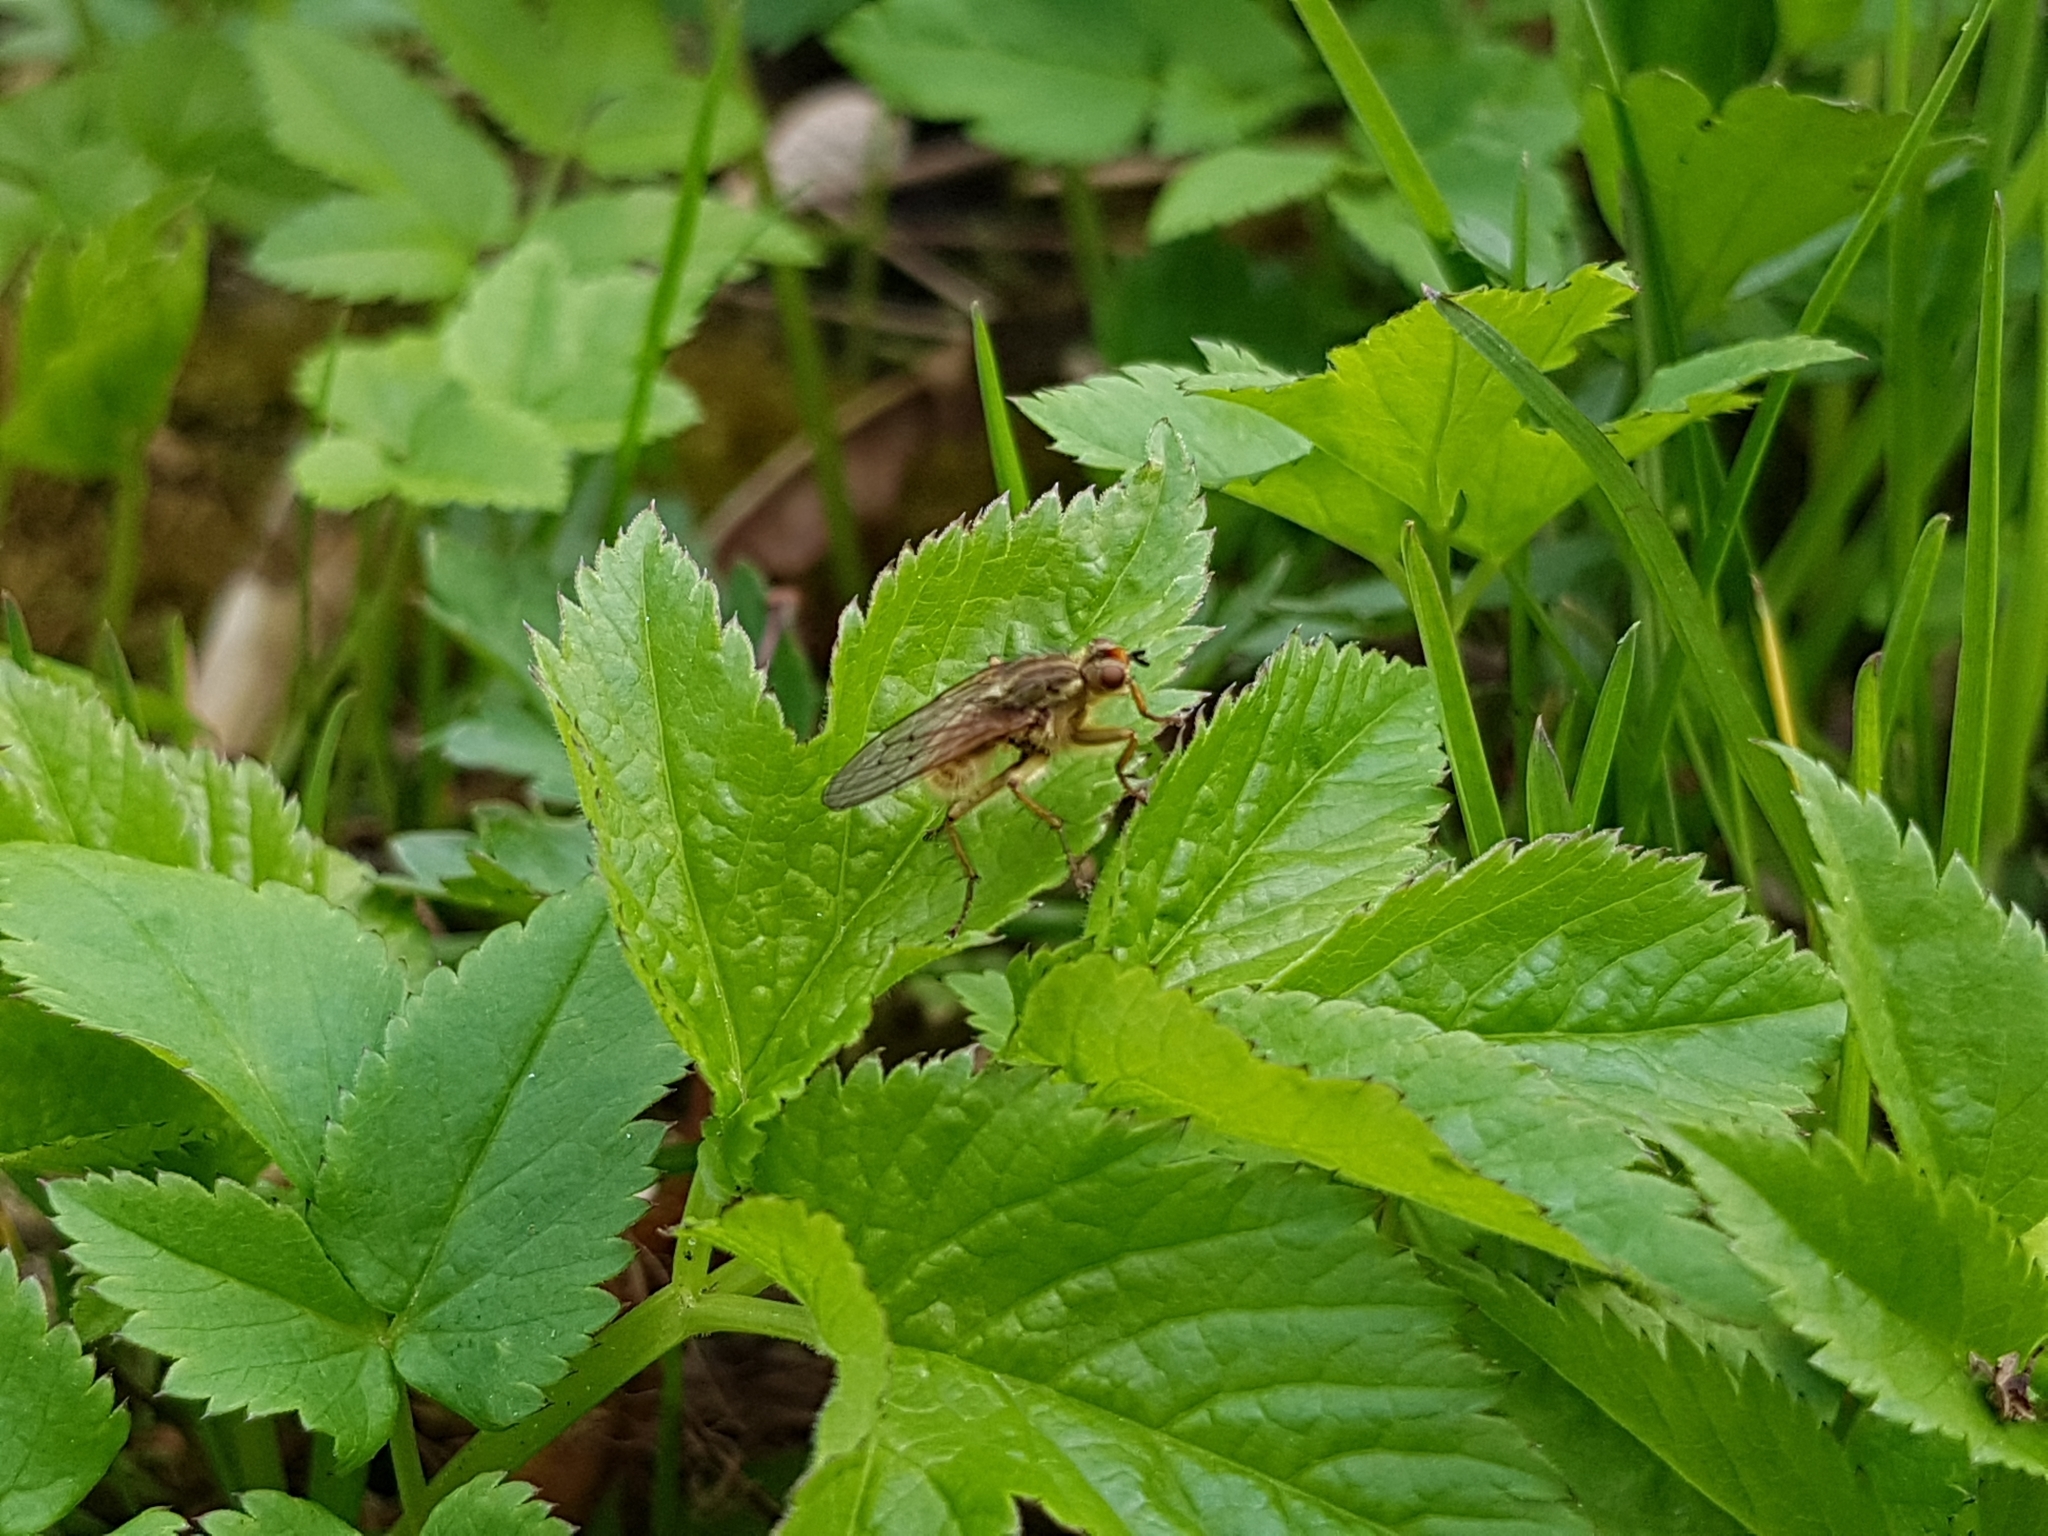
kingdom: Animalia
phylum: Arthropoda
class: Insecta
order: Diptera
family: Scathophagidae
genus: Scathophaga
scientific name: Scathophaga stercoraria
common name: Yellow dung fly
